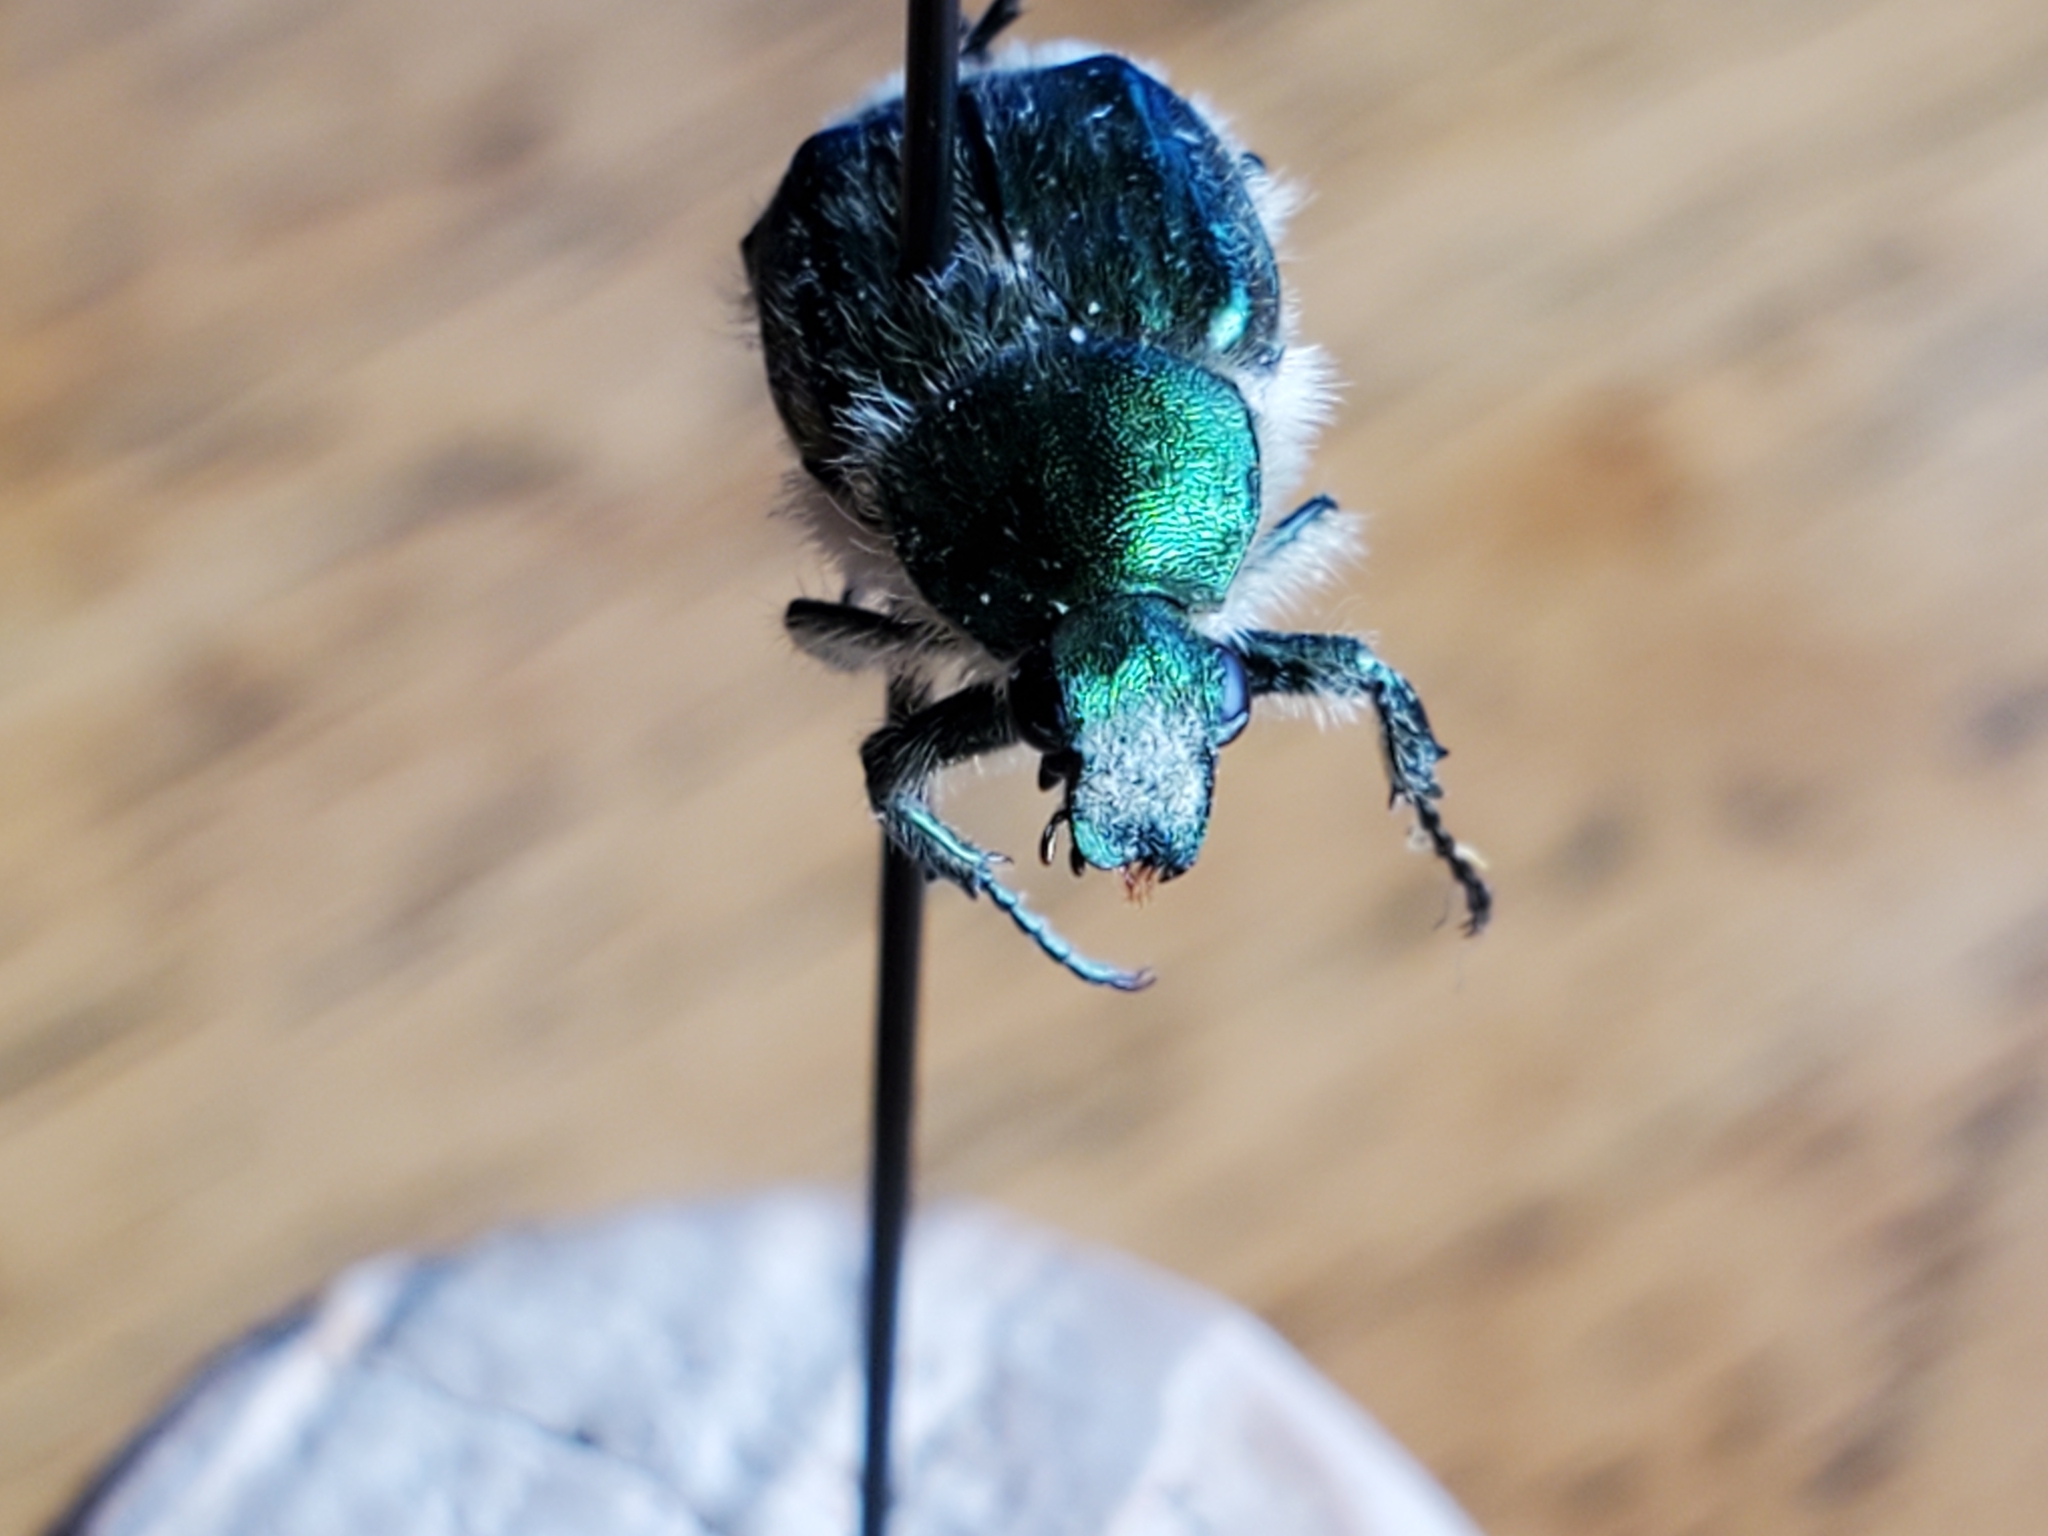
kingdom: Animalia
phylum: Arthropoda
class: Insecta
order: Coleoptera
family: Scarabaeidae
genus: Trichiotinus
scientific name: Trichiotinus lunulatus
